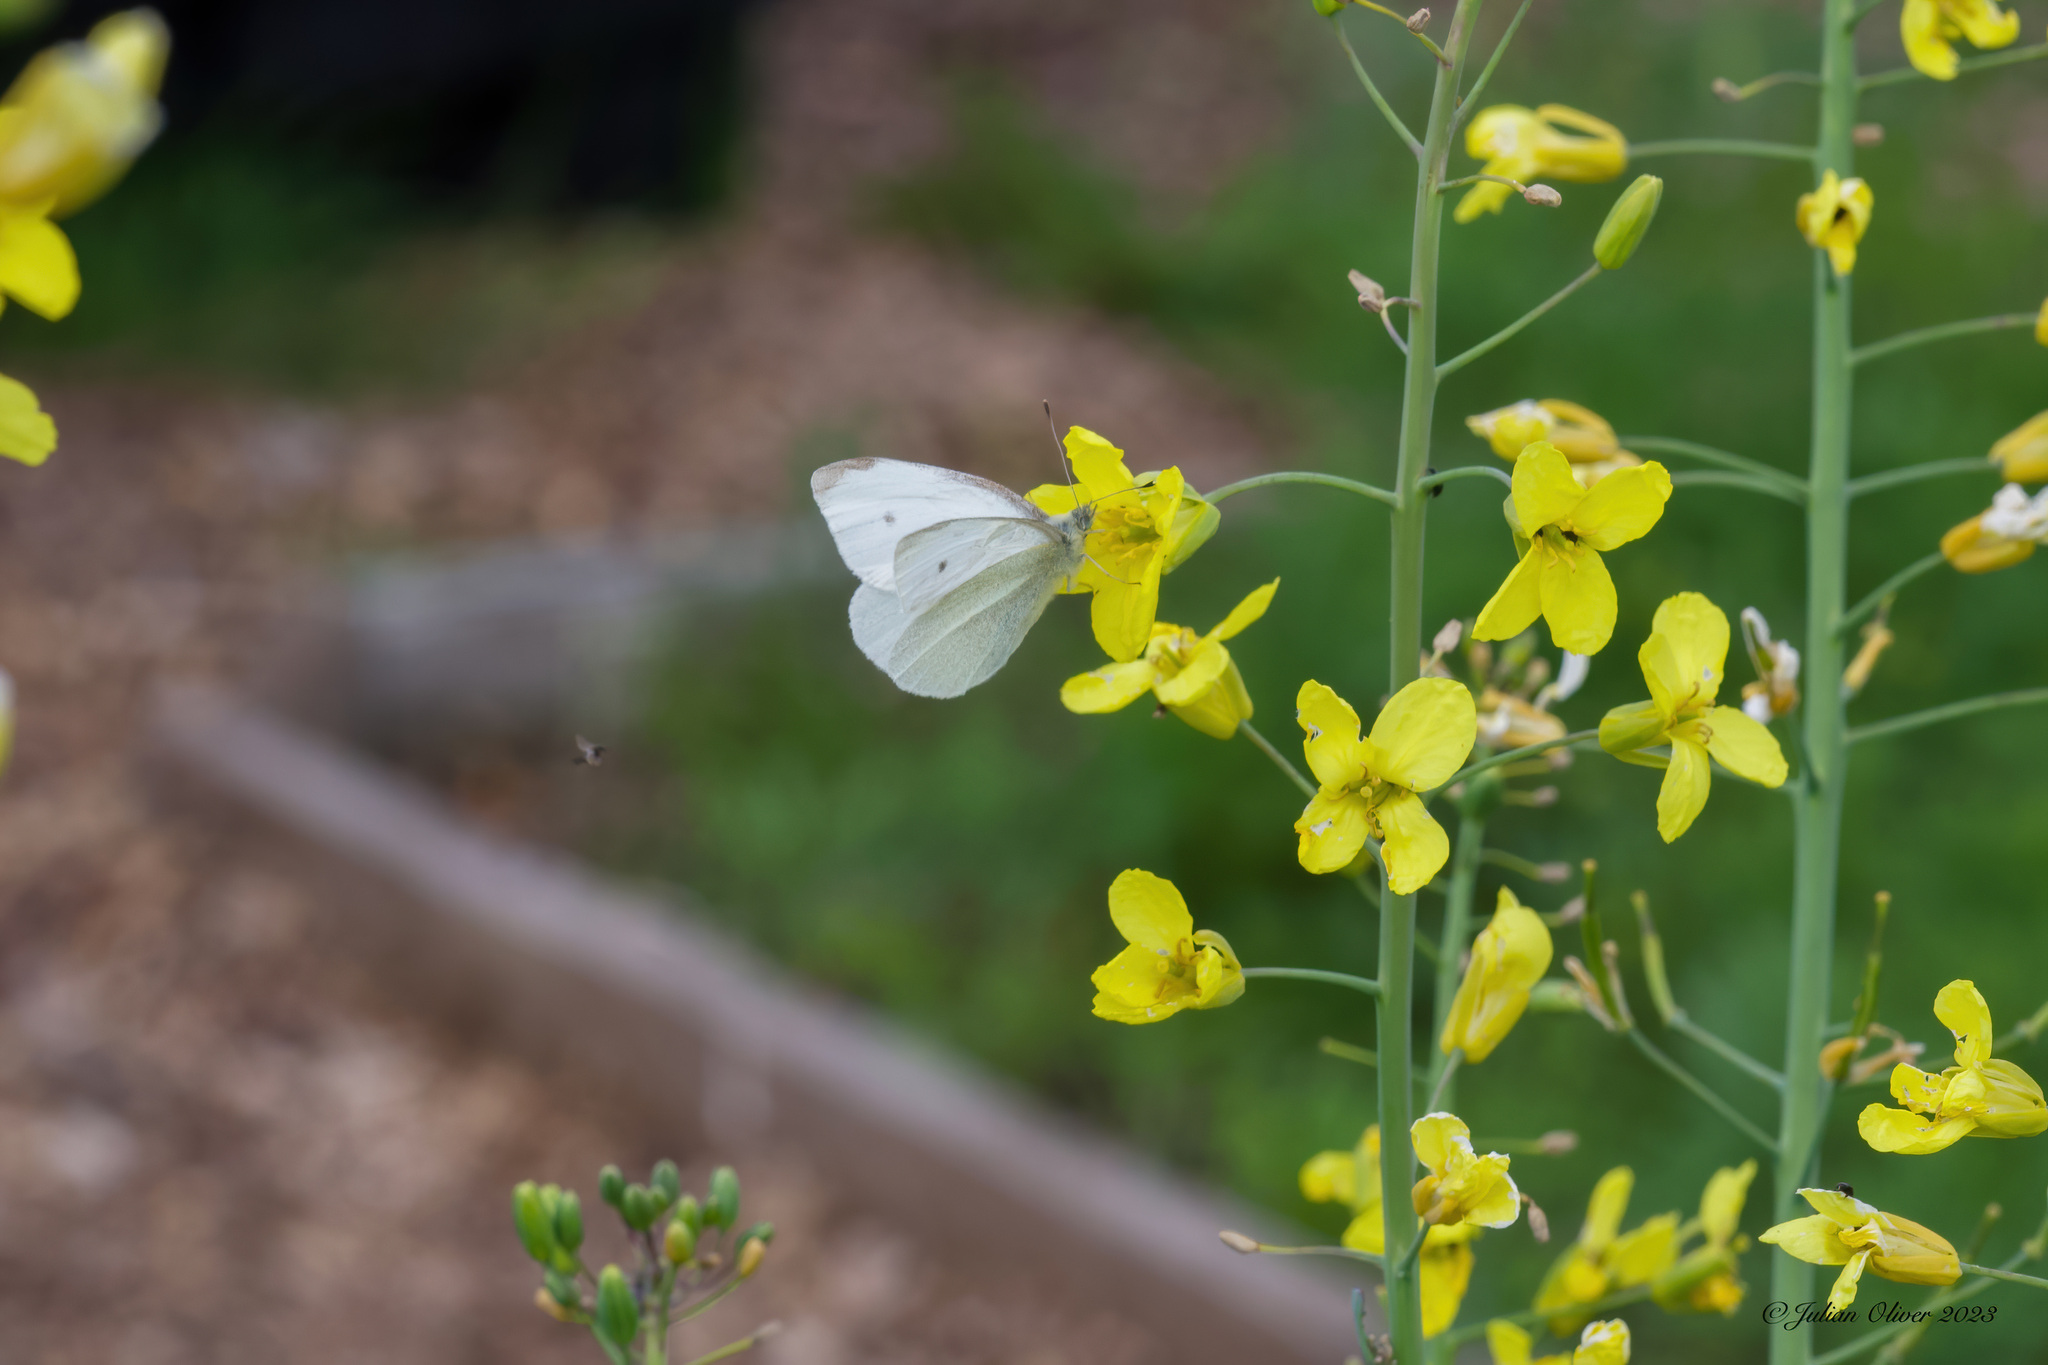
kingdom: Animalia
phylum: Arthropoda
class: Insecta
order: Lepidoptera
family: Pieridae
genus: Pieris
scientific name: Pieris rapae
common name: Small white
